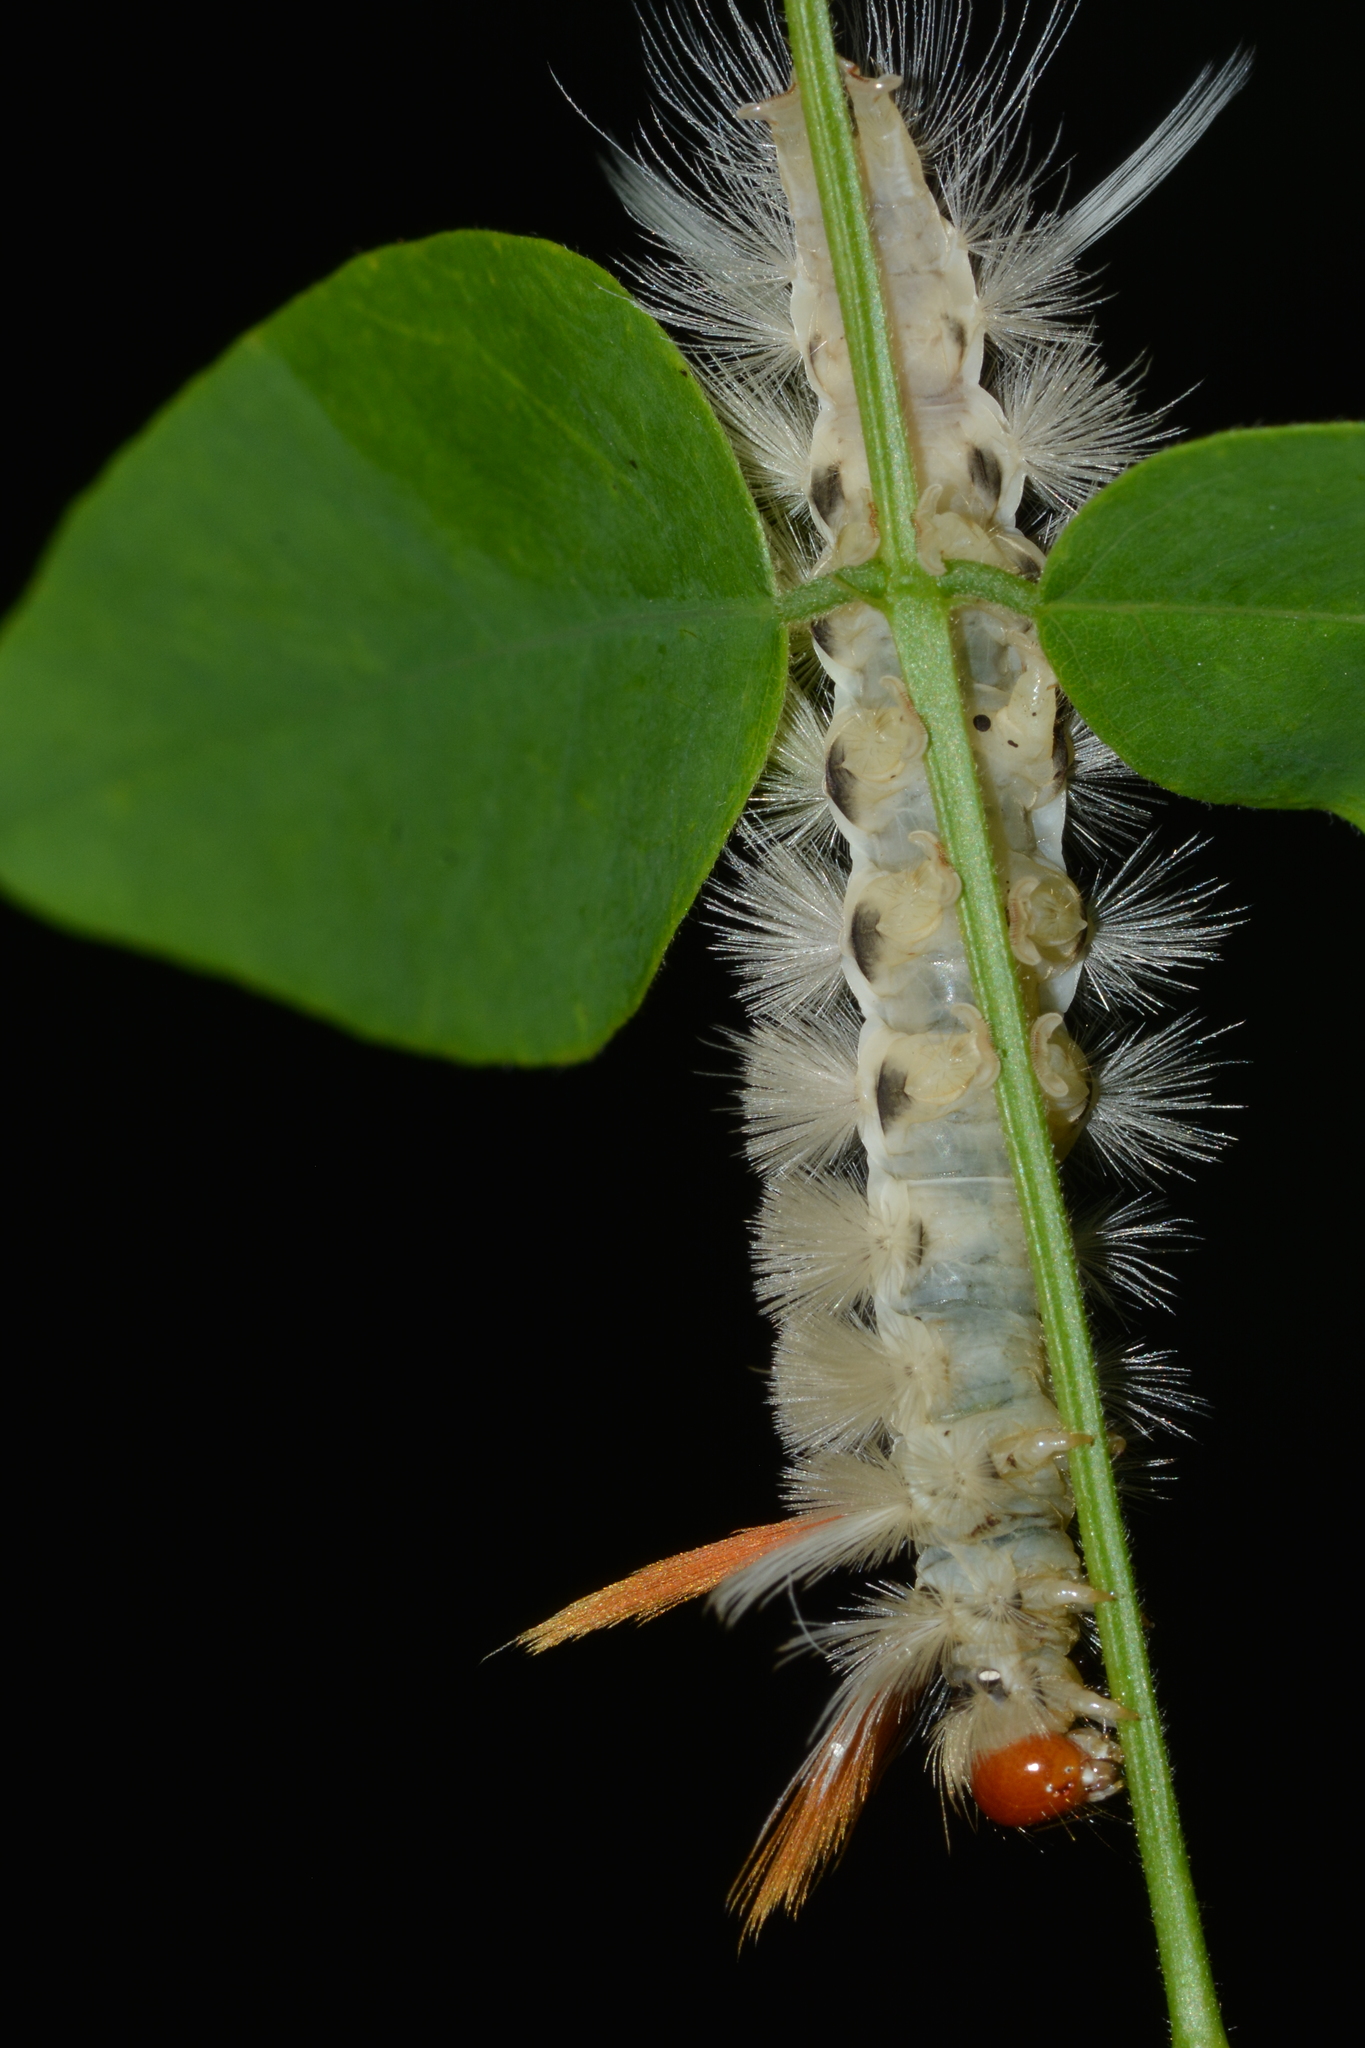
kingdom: Animalia
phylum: Arthropoda
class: Insecta
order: Lepidoptera
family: Erebidae
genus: Halysidota
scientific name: Halysidota harrisii
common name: Sycamore tussock moth
